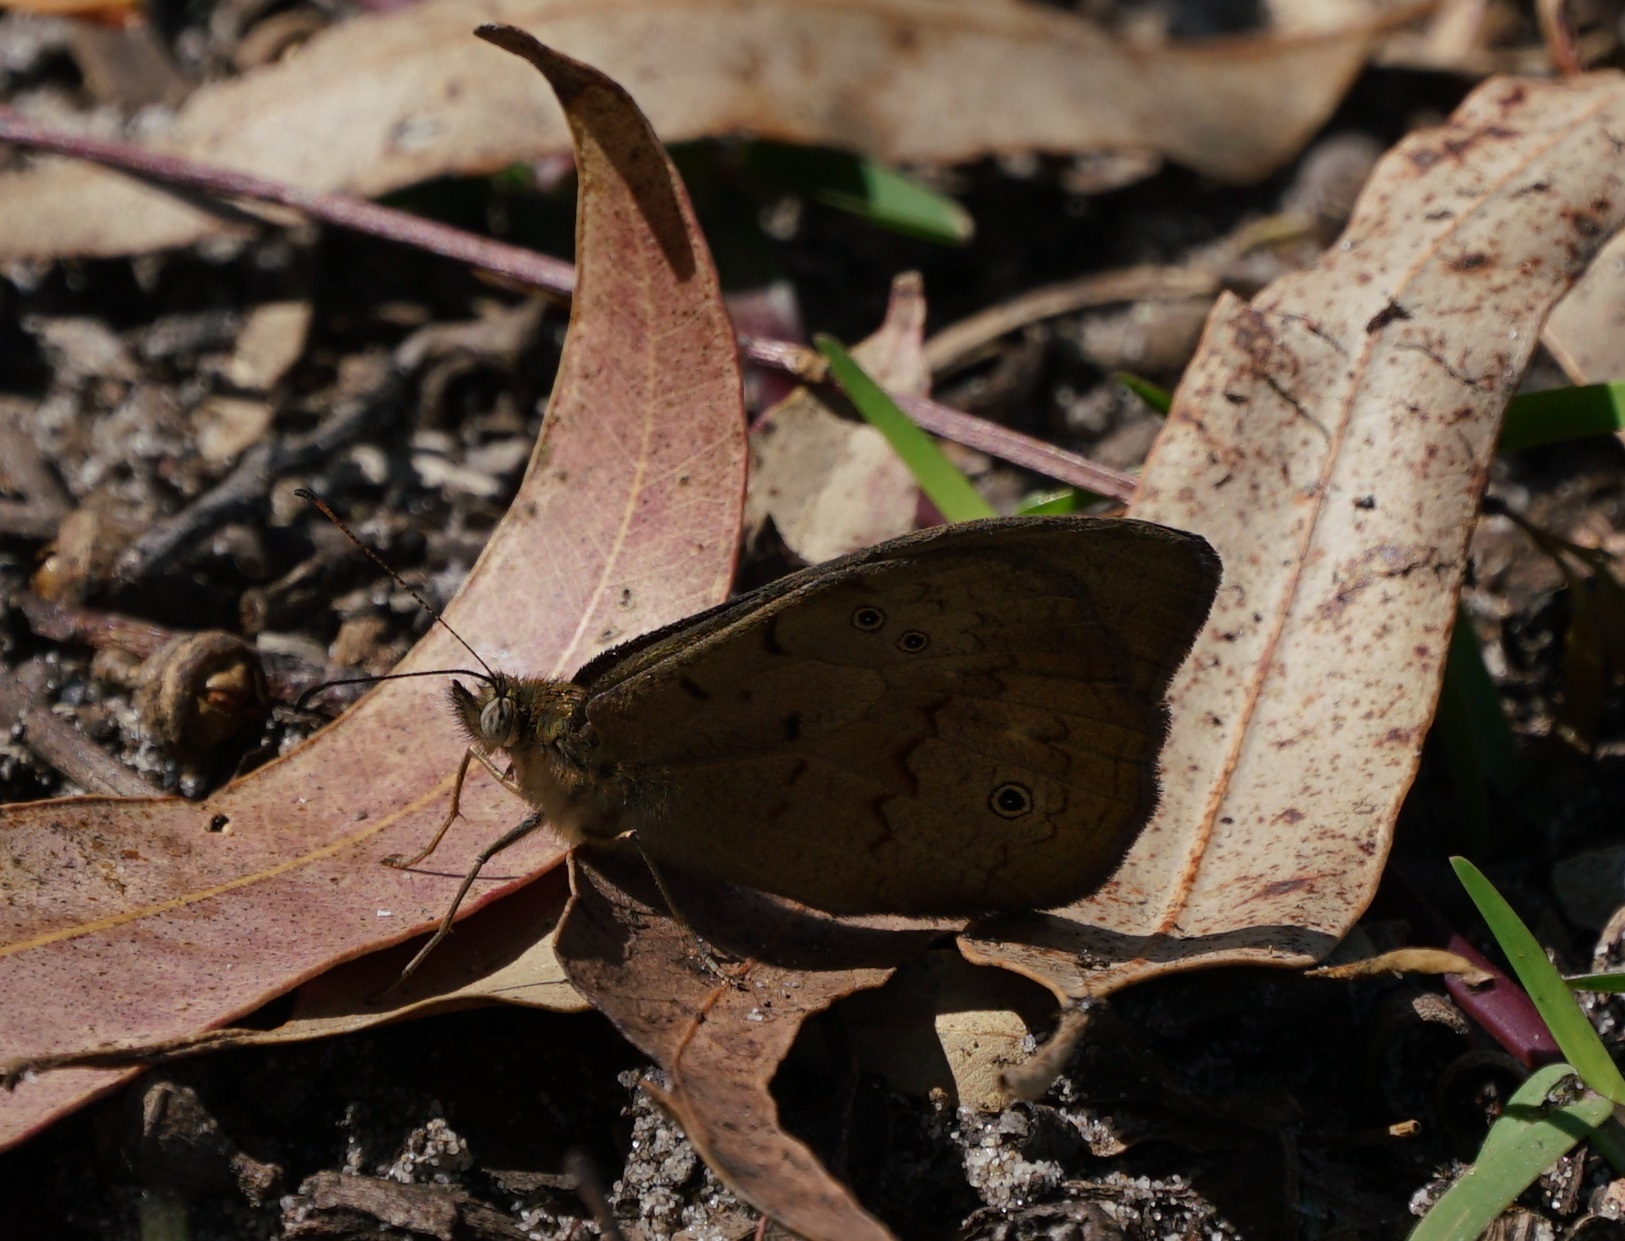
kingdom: Animalia
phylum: Arthropoda
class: Insecta
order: Lepidoptera
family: Nymphalidae
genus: Heteronympha
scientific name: Heteronympha merope
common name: Common brown
